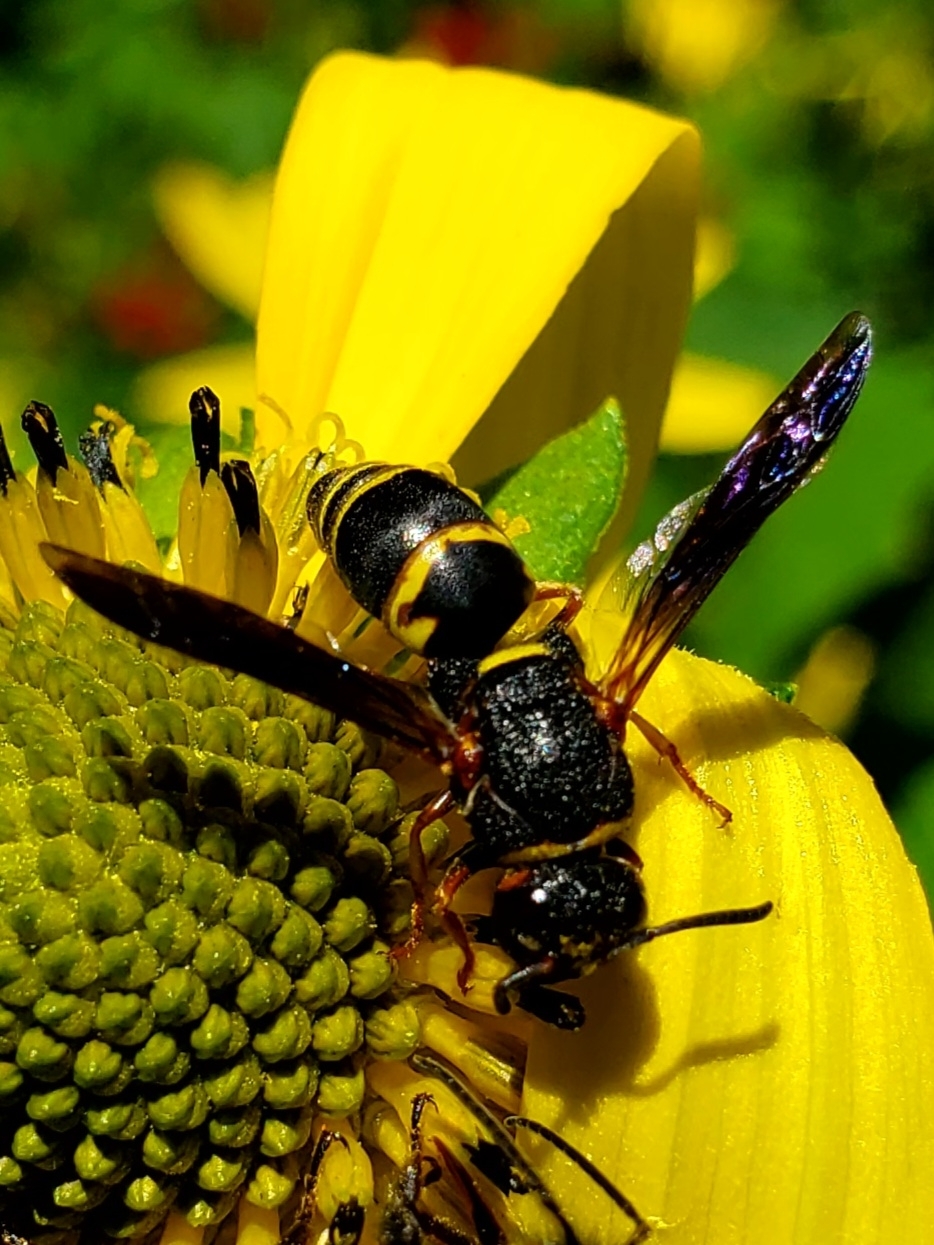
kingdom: Animalia
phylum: Arthropoda
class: Insecta
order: Hymenoptera
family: Eumenidae
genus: Euodynerus
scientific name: Euodynerus hidalgo
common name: Wasp
